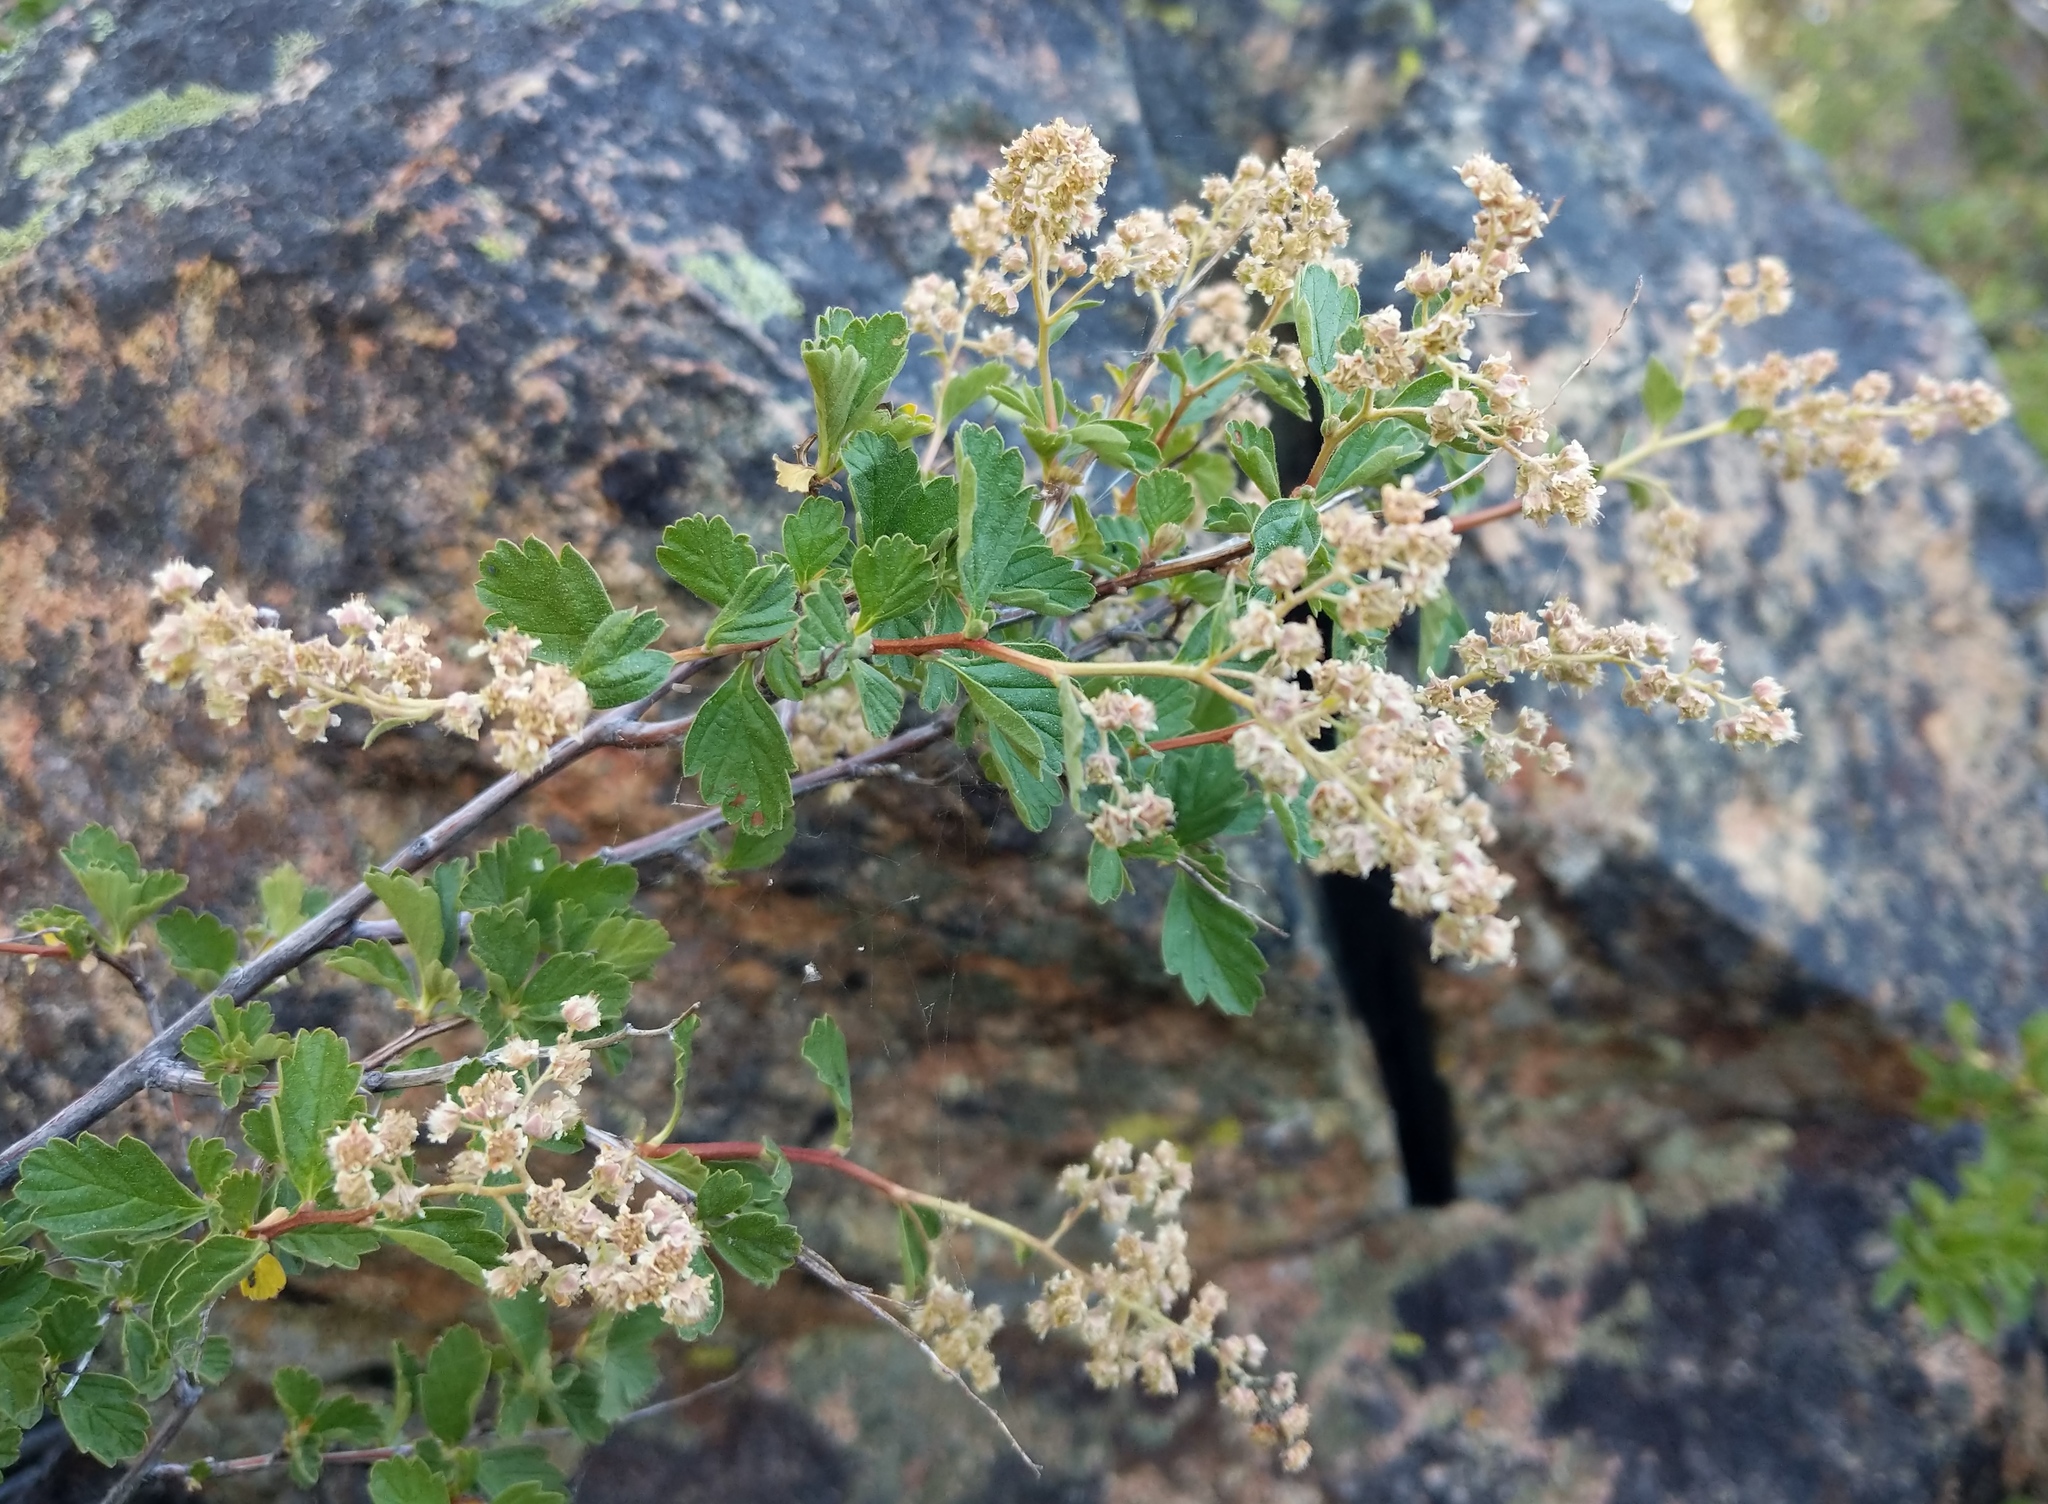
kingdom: Plantae
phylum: Tracheophyta
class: Magnoliopsida
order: Rosales
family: Rosaceae
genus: Holodiscus
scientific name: Holodiscus discolor
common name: Oceanspray
